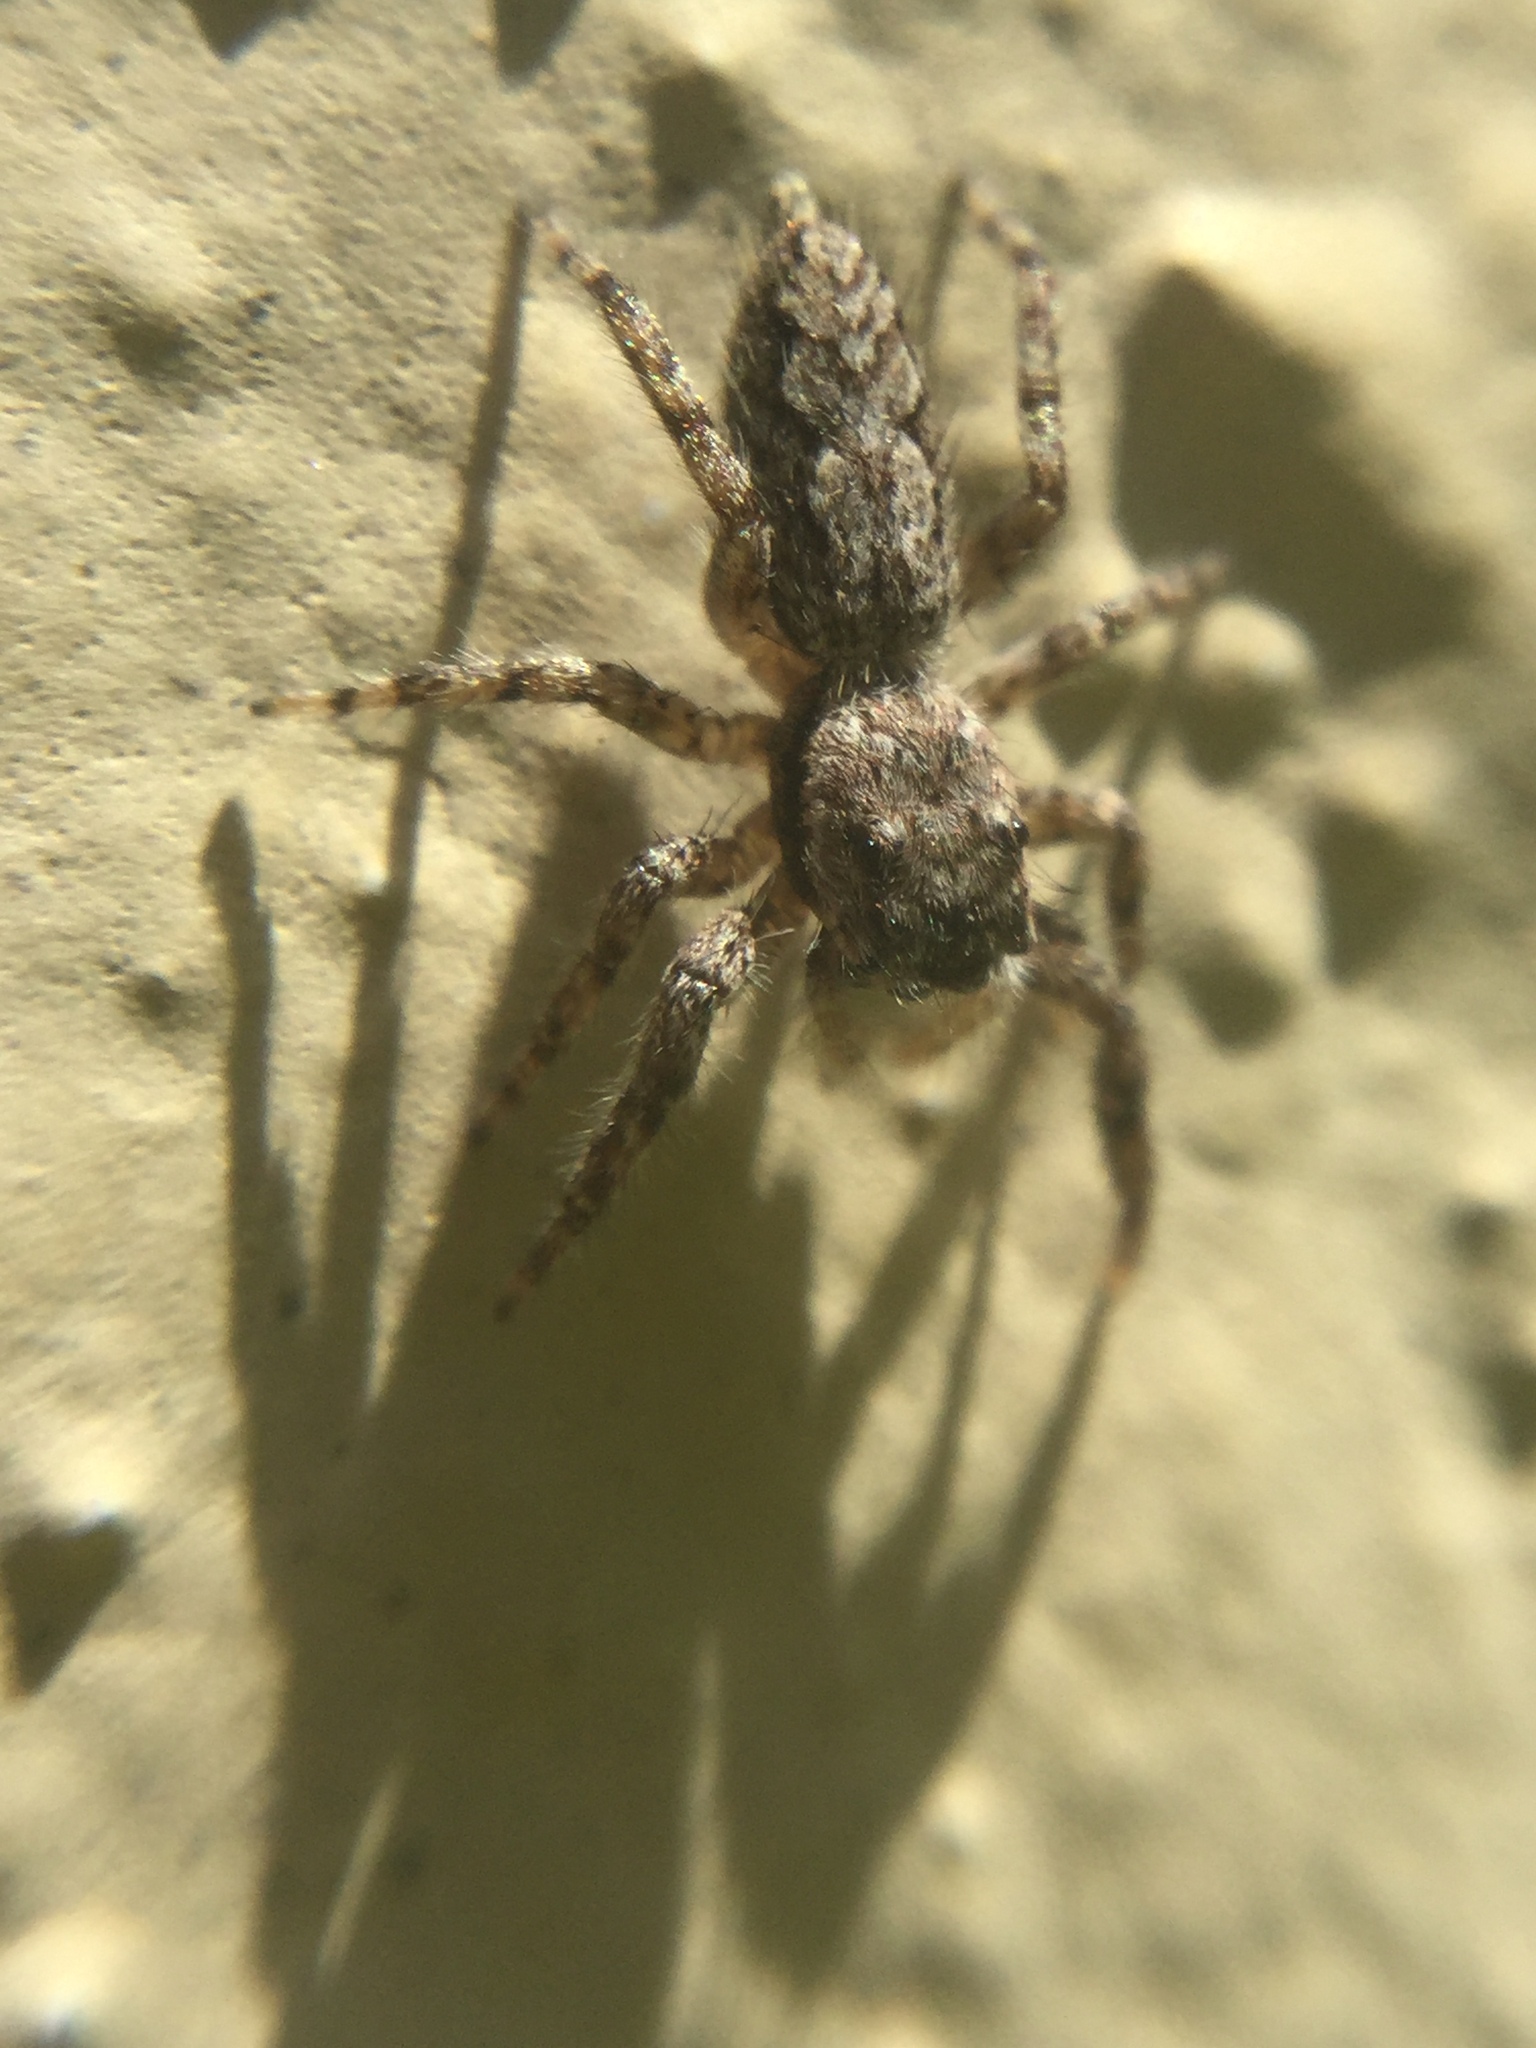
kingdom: Animalia
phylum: Arthropoda
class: Arachnida
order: Araneae
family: Salticidae
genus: Platycryptus
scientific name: Platycryptus undatus
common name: Tan jumping spider
